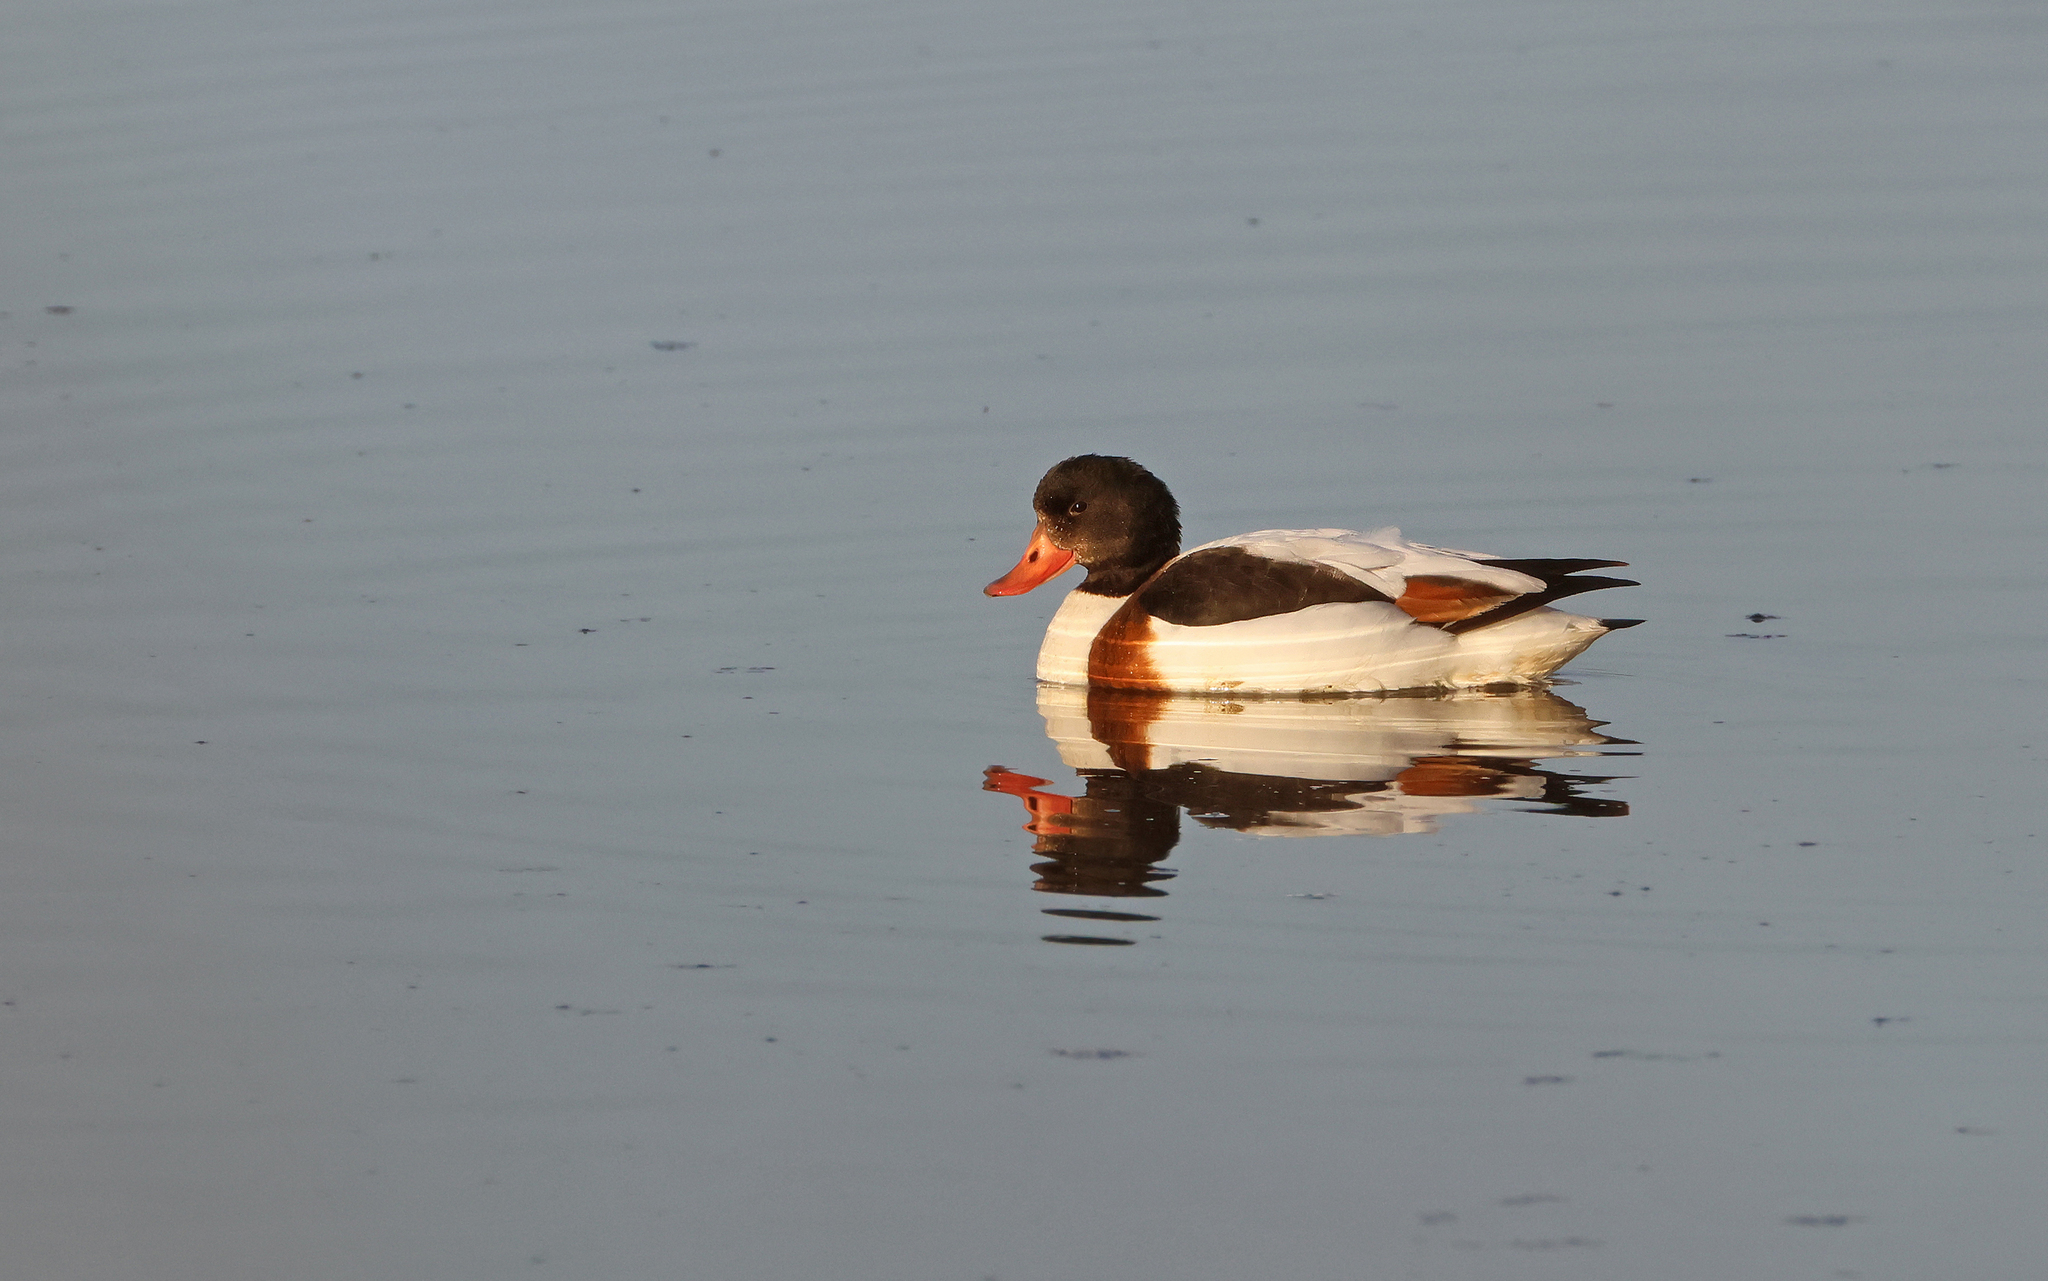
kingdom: Animalia
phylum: Chordata
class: Aves
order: Anseriformes
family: Anatidae
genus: Tadorna
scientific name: Tadorna tadorna
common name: Common shelduck
